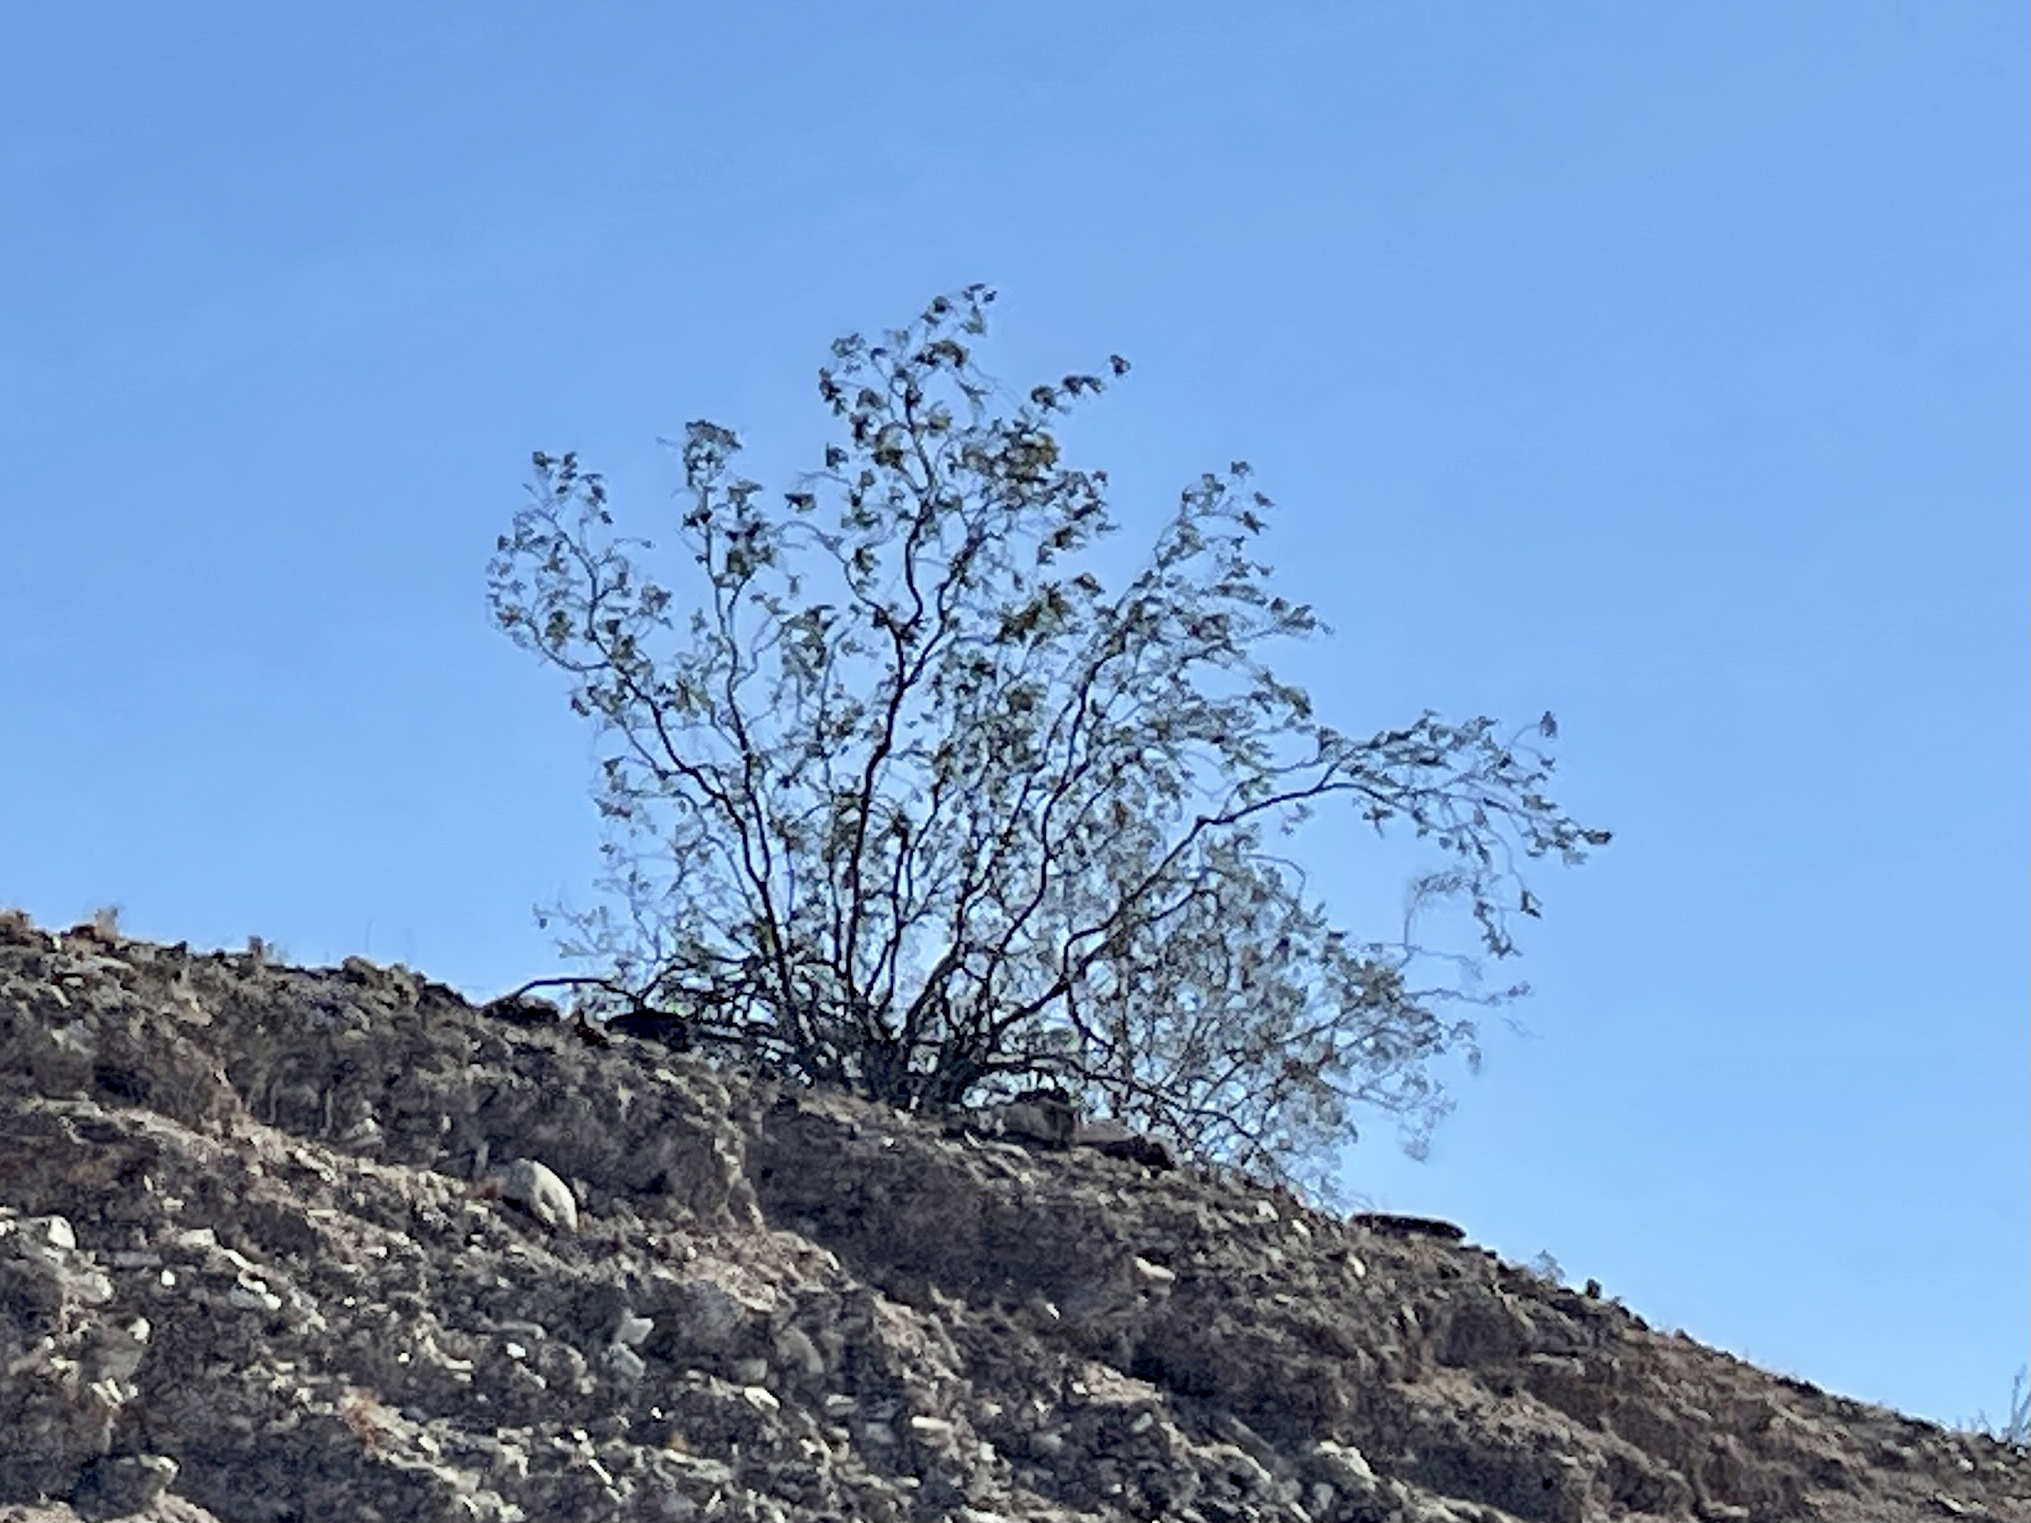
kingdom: Plantae
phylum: Tracheophyta
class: Magnoliopsida
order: Zygophyllales
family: Zygophyllaceae
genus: Larrea
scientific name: Larrea tridentata
